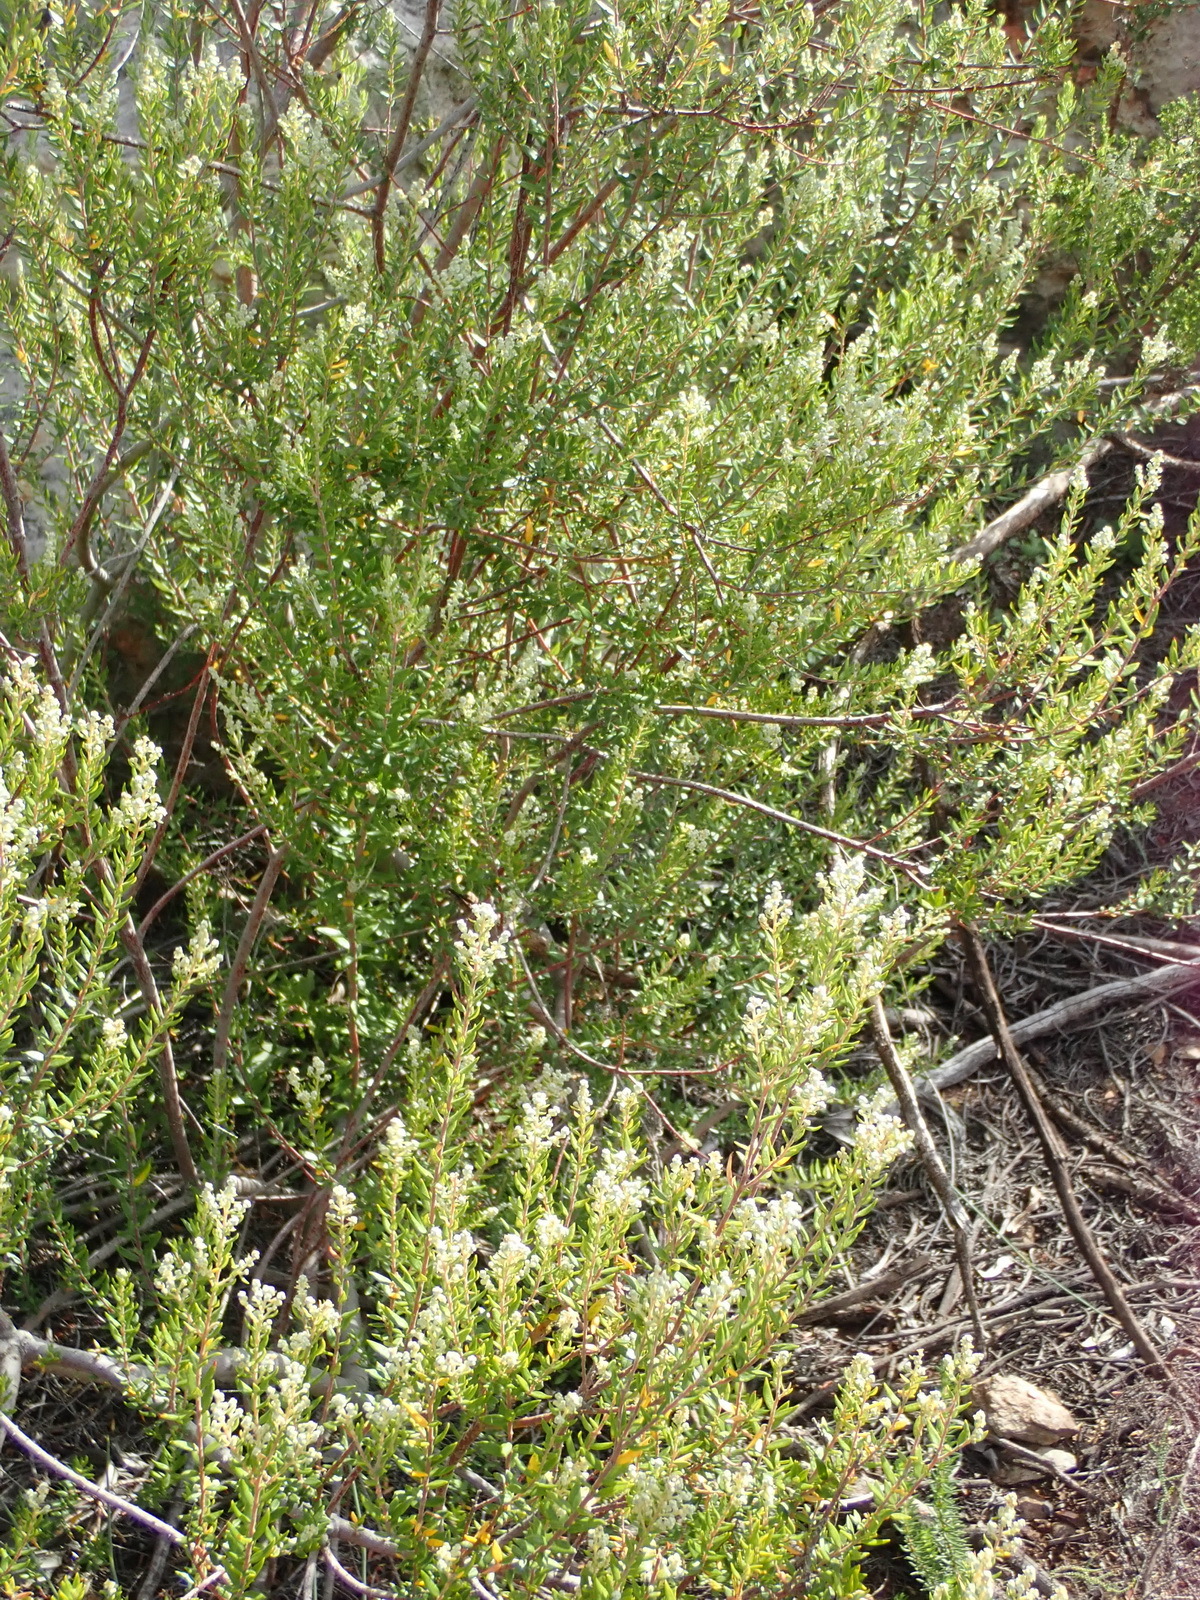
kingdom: Plantae
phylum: Tracheophyta
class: Magnoliopsida
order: Rosales
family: Rhamnaceae
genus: Phylica
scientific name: Phylica paniculata
